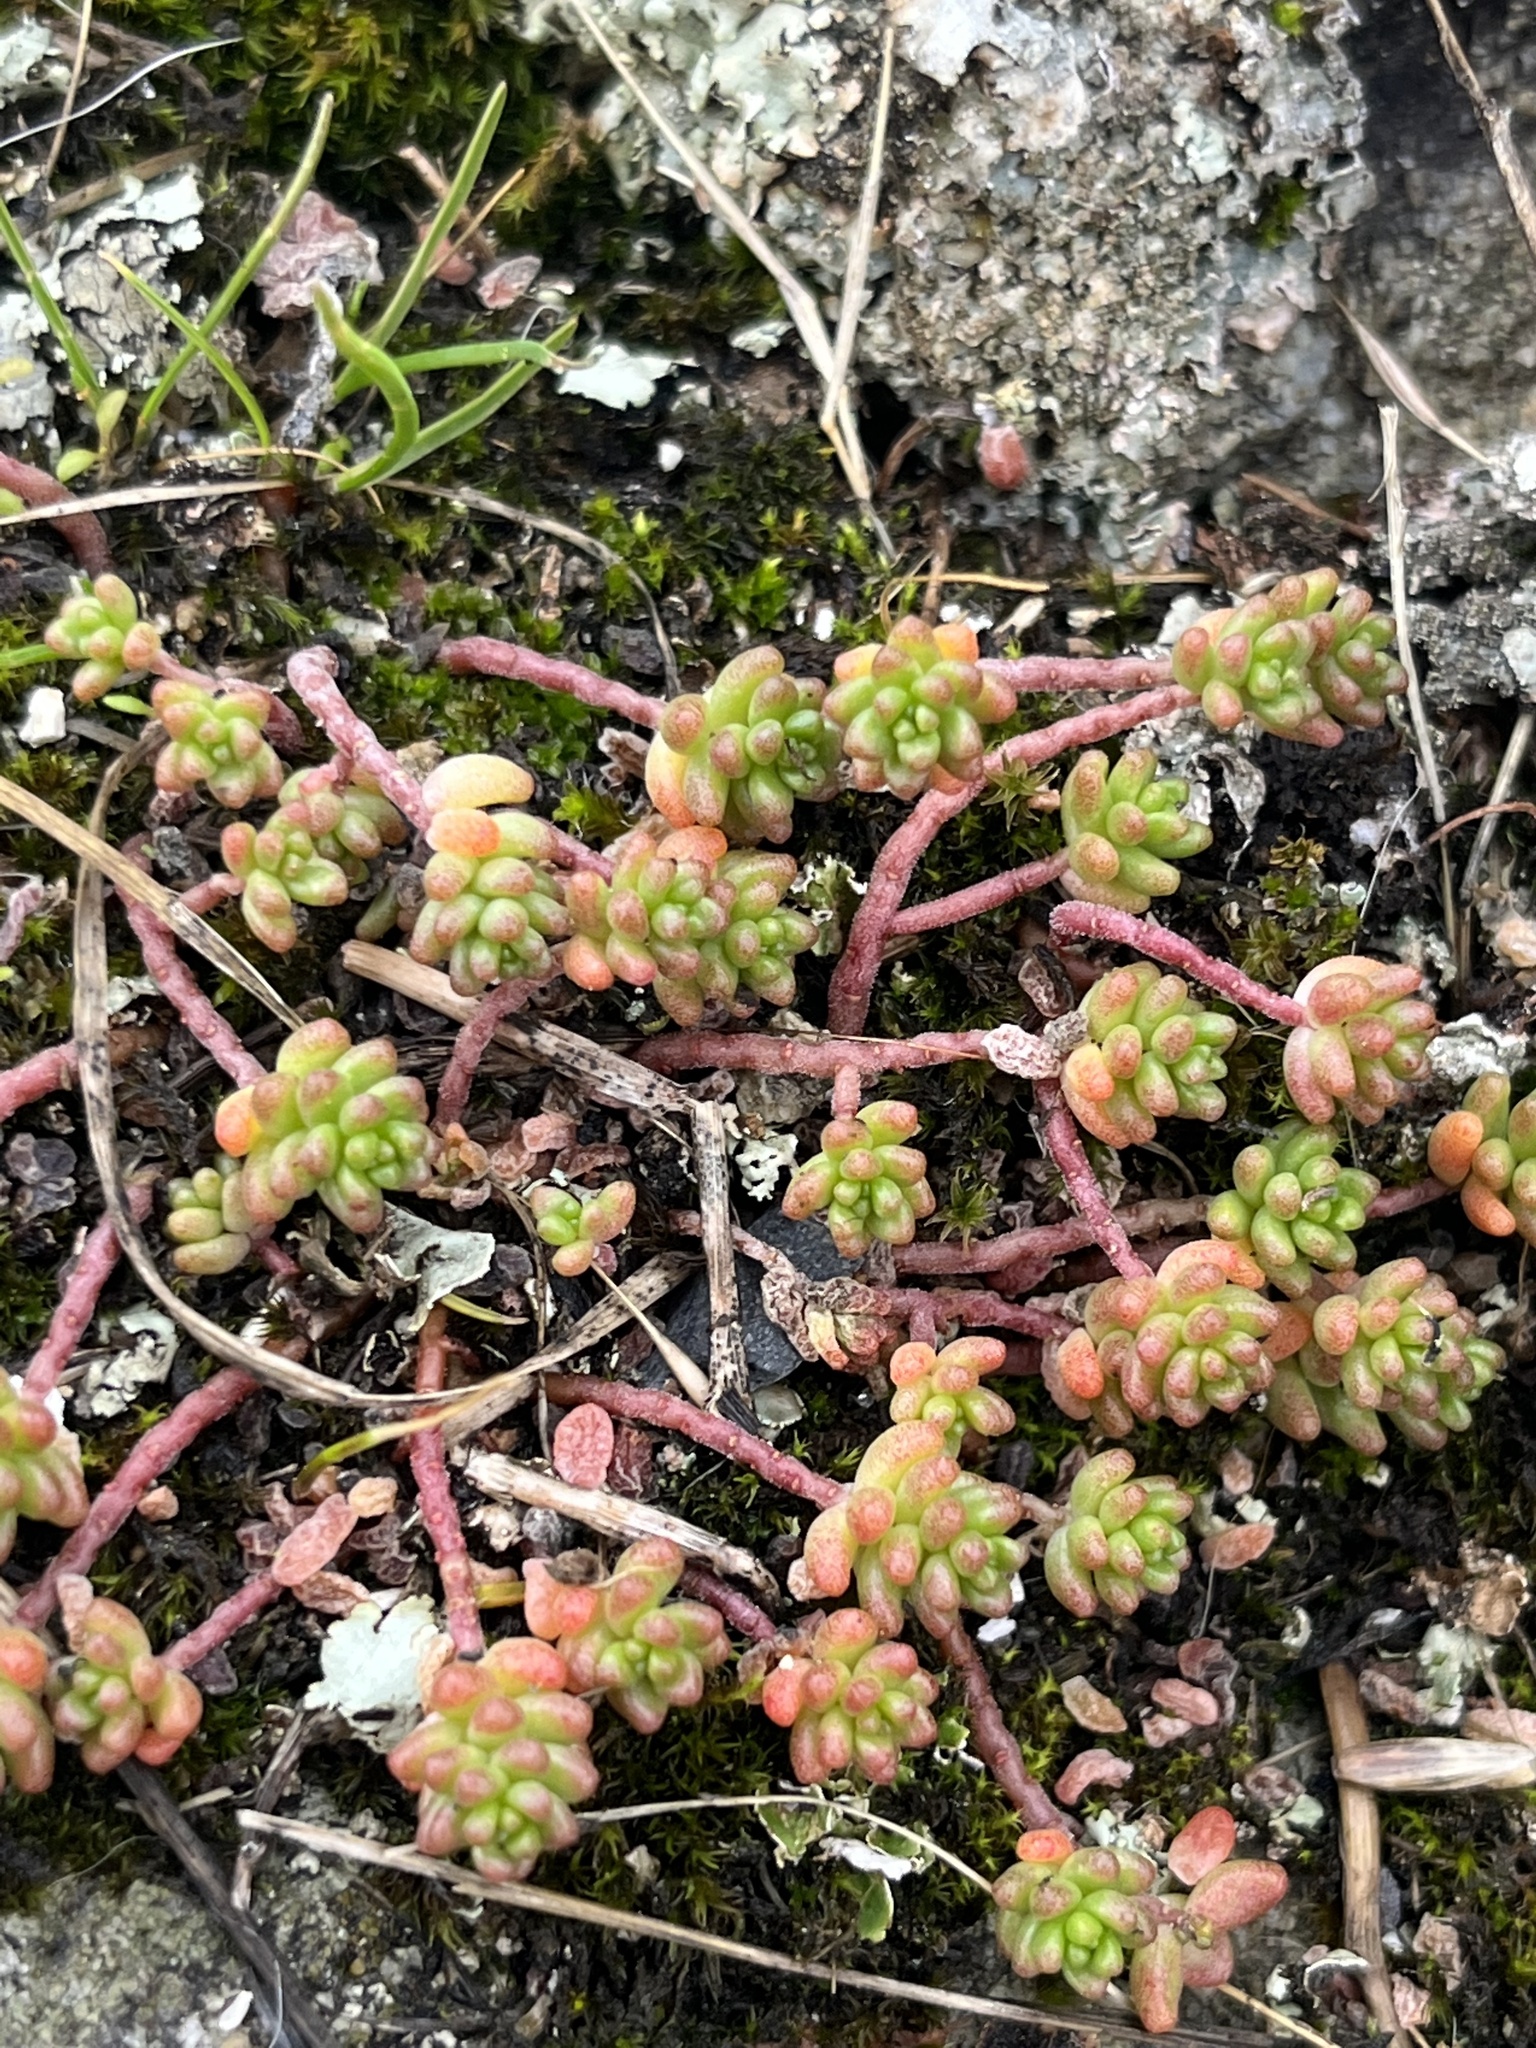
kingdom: Plantae
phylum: Tracheophyta
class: Magnoliopsida
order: Saxifragales
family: Crassulaceae
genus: Sedum
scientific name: Sedum album
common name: White stonecrop
